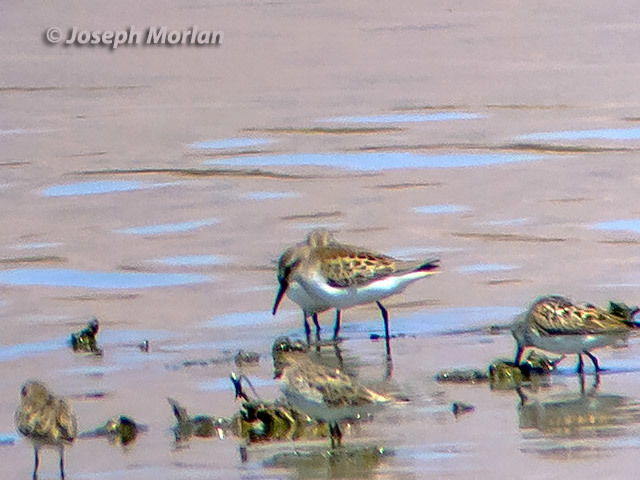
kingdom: Animalia
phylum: Chordata
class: Aves
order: Charadriiformes
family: Scolopacidae
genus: Calidris
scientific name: Calidris mauri
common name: Western sandpiper
